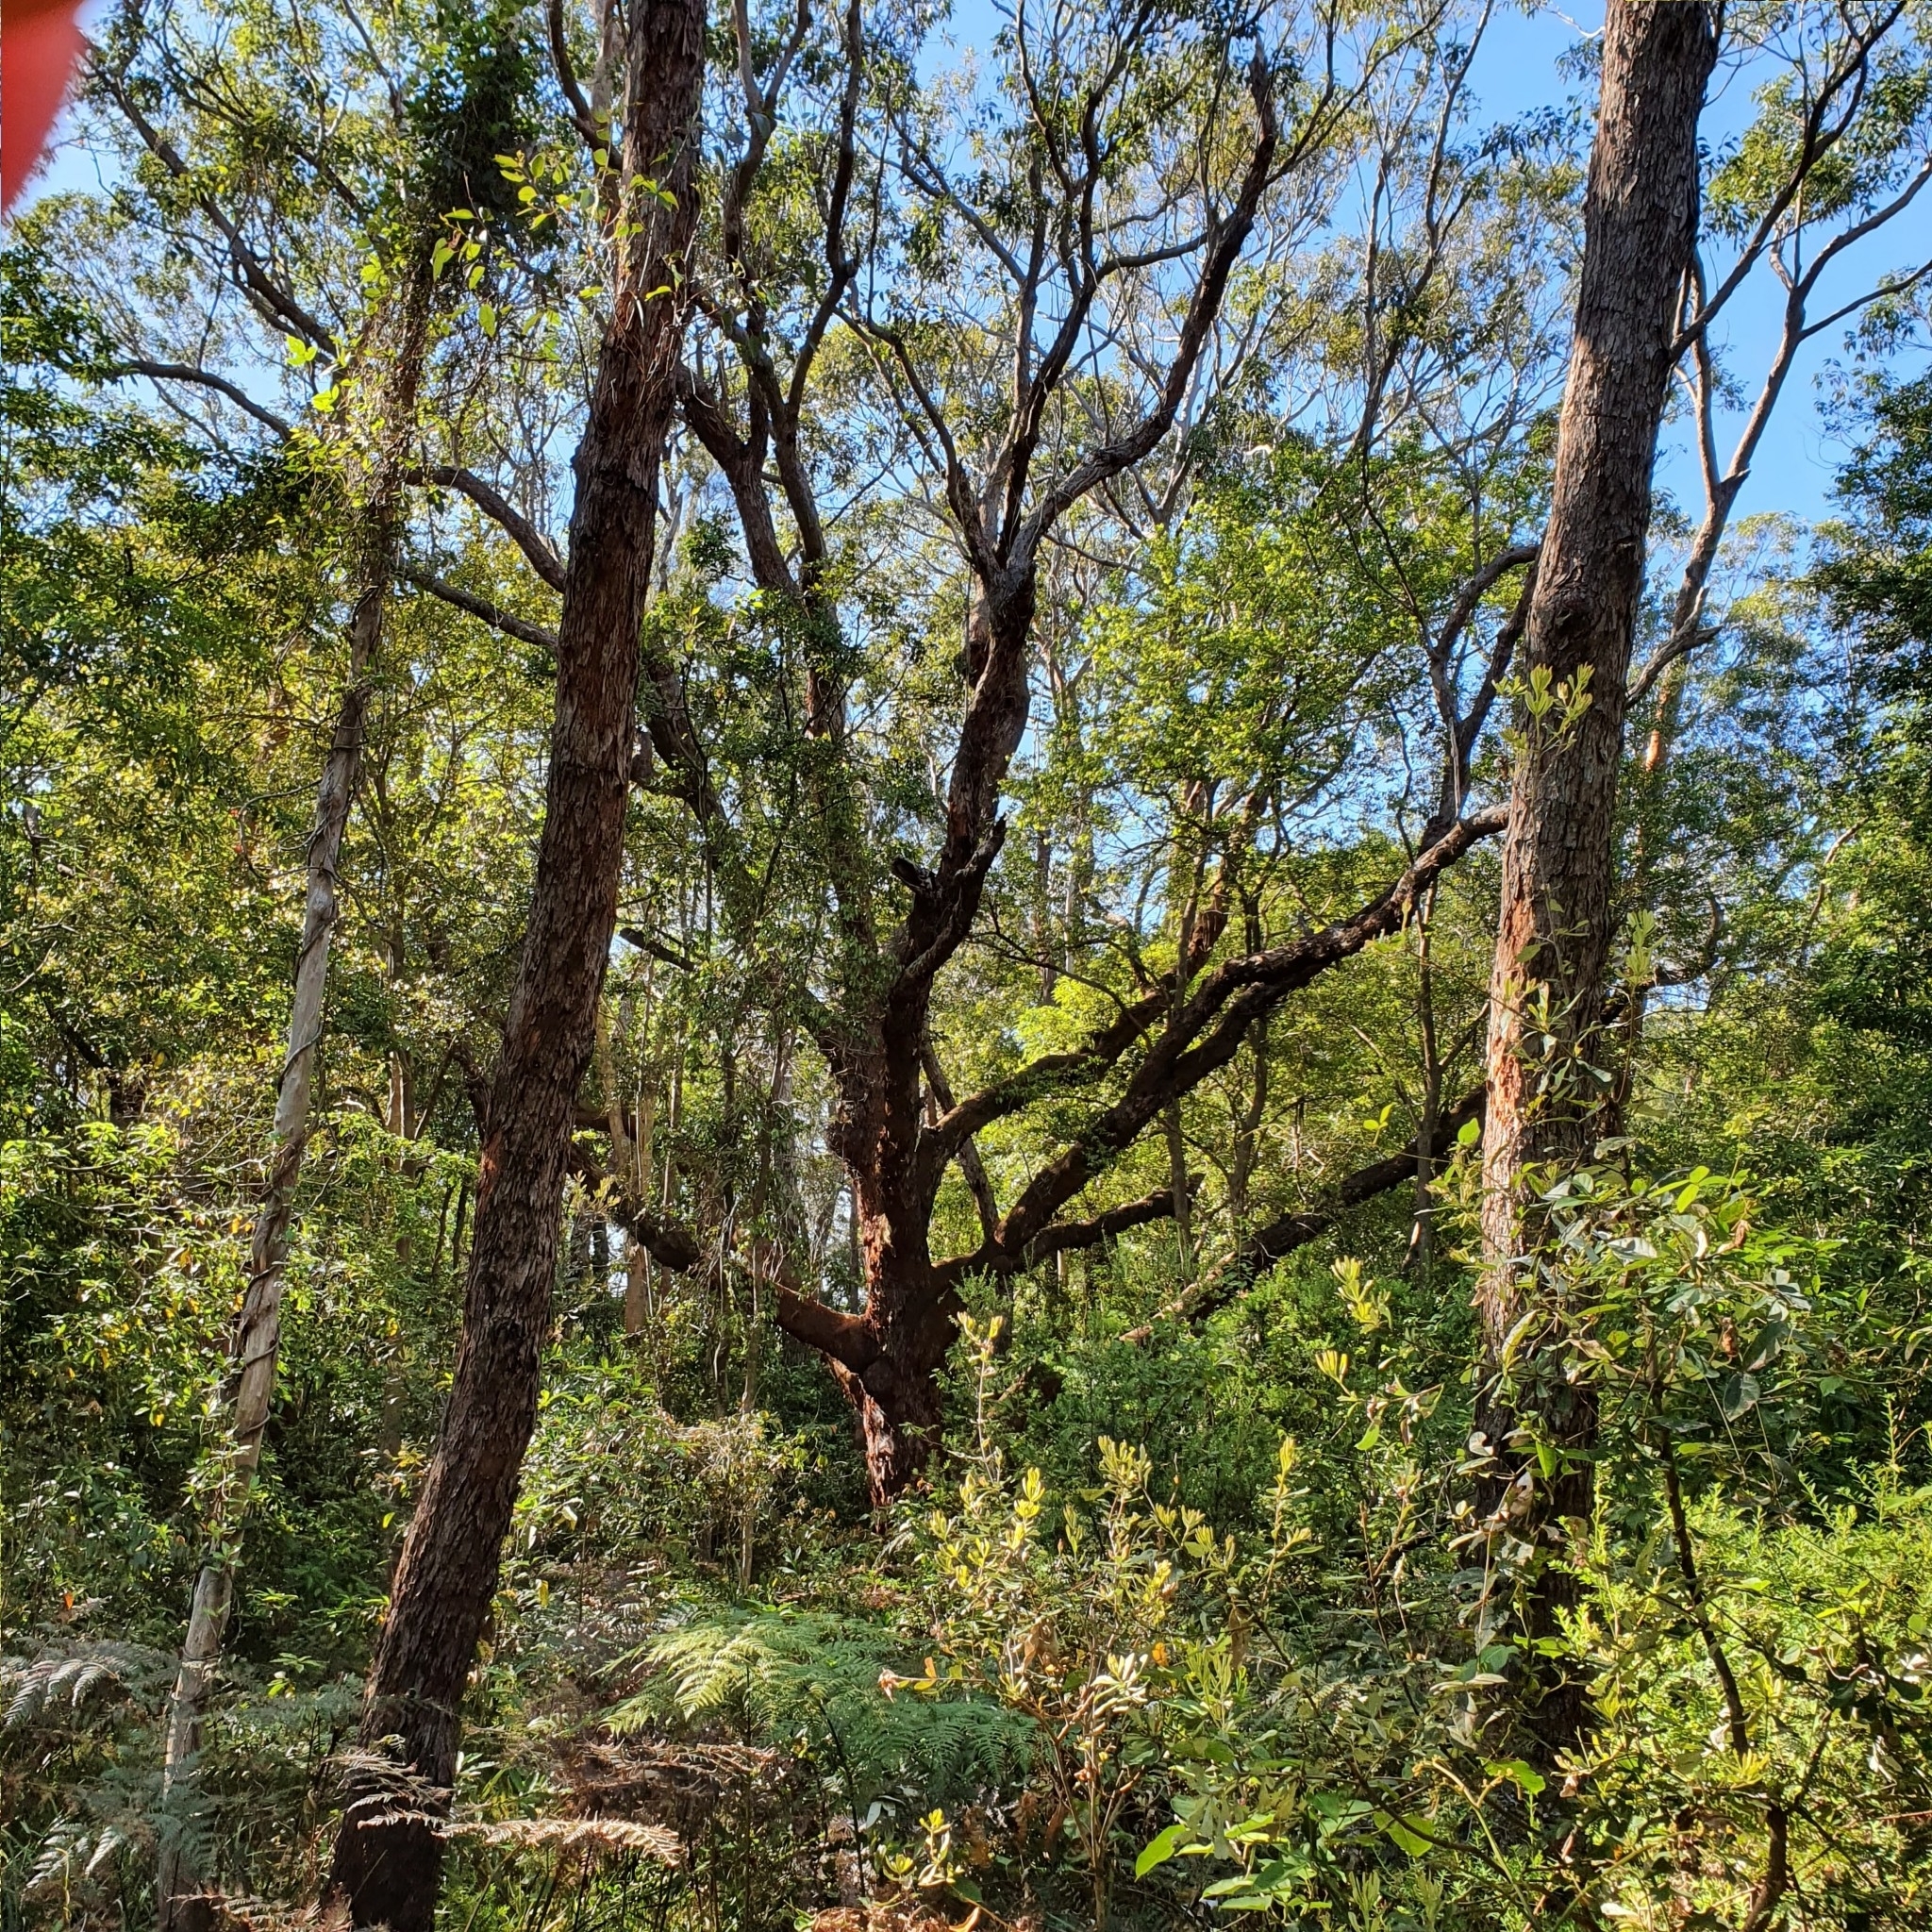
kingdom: Plantae
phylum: Tracheophyta
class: Magnoliopsida
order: Myrtales
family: Myrtaceae
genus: Eucalyptus
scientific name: Eucalyptus botryoides
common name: Bangalay
